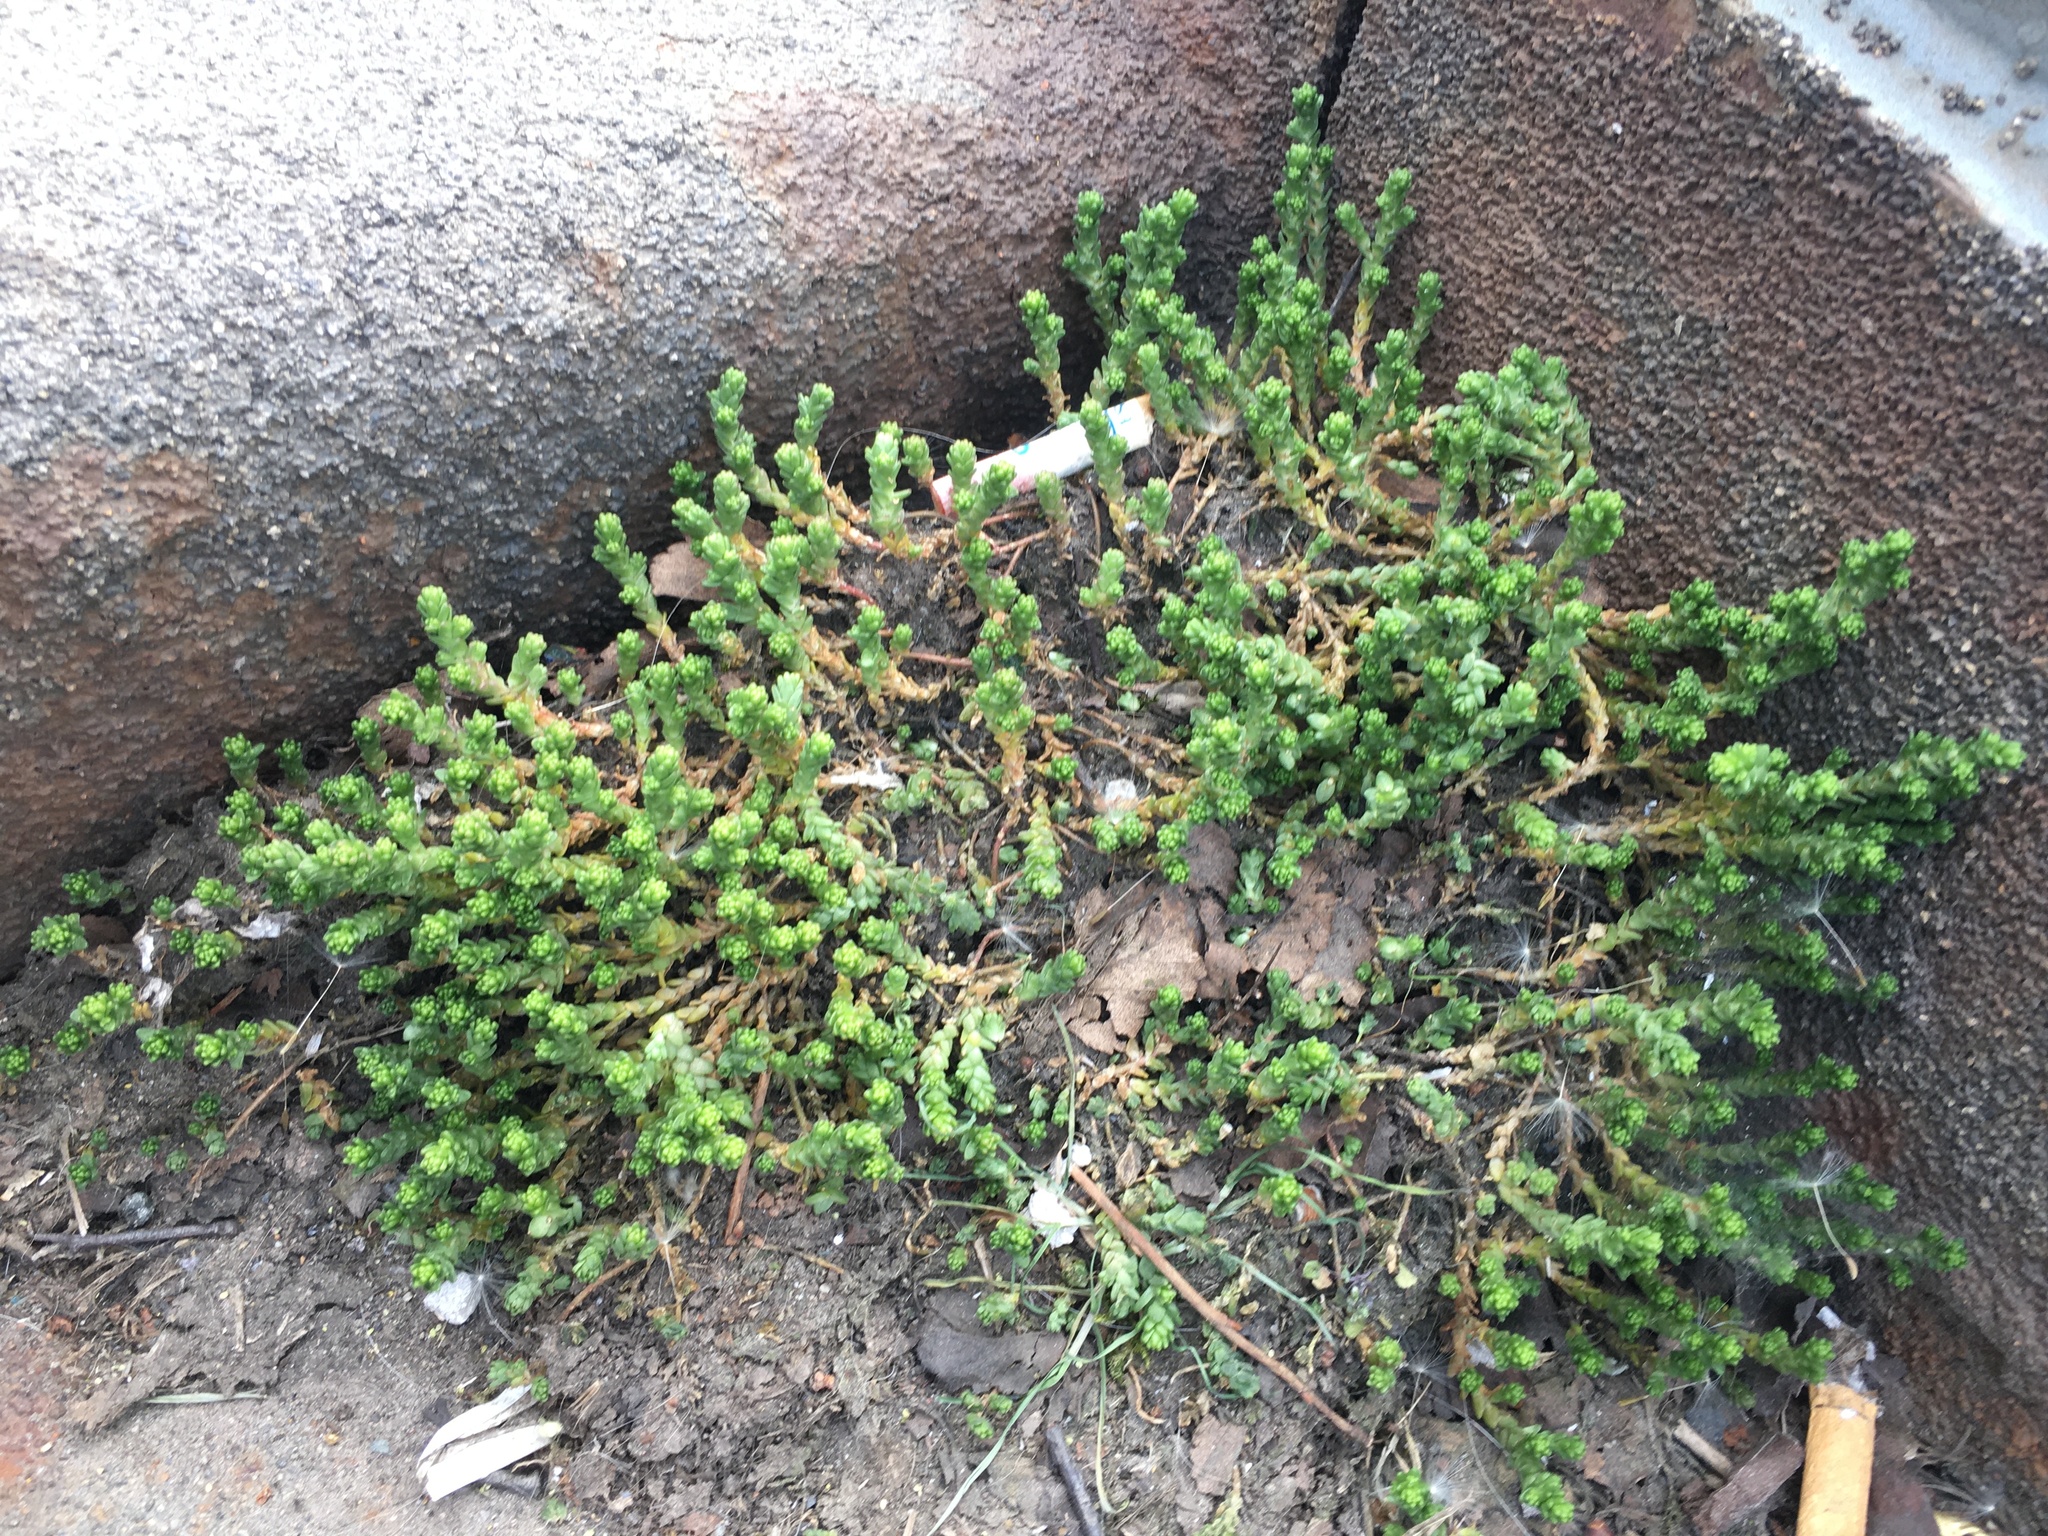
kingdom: Plantae
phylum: Tracheophyta
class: Magnoliopsida
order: Saxifragales
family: Crassulaceae
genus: Sedum
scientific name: Sedum acre
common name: Biting stonecrop
